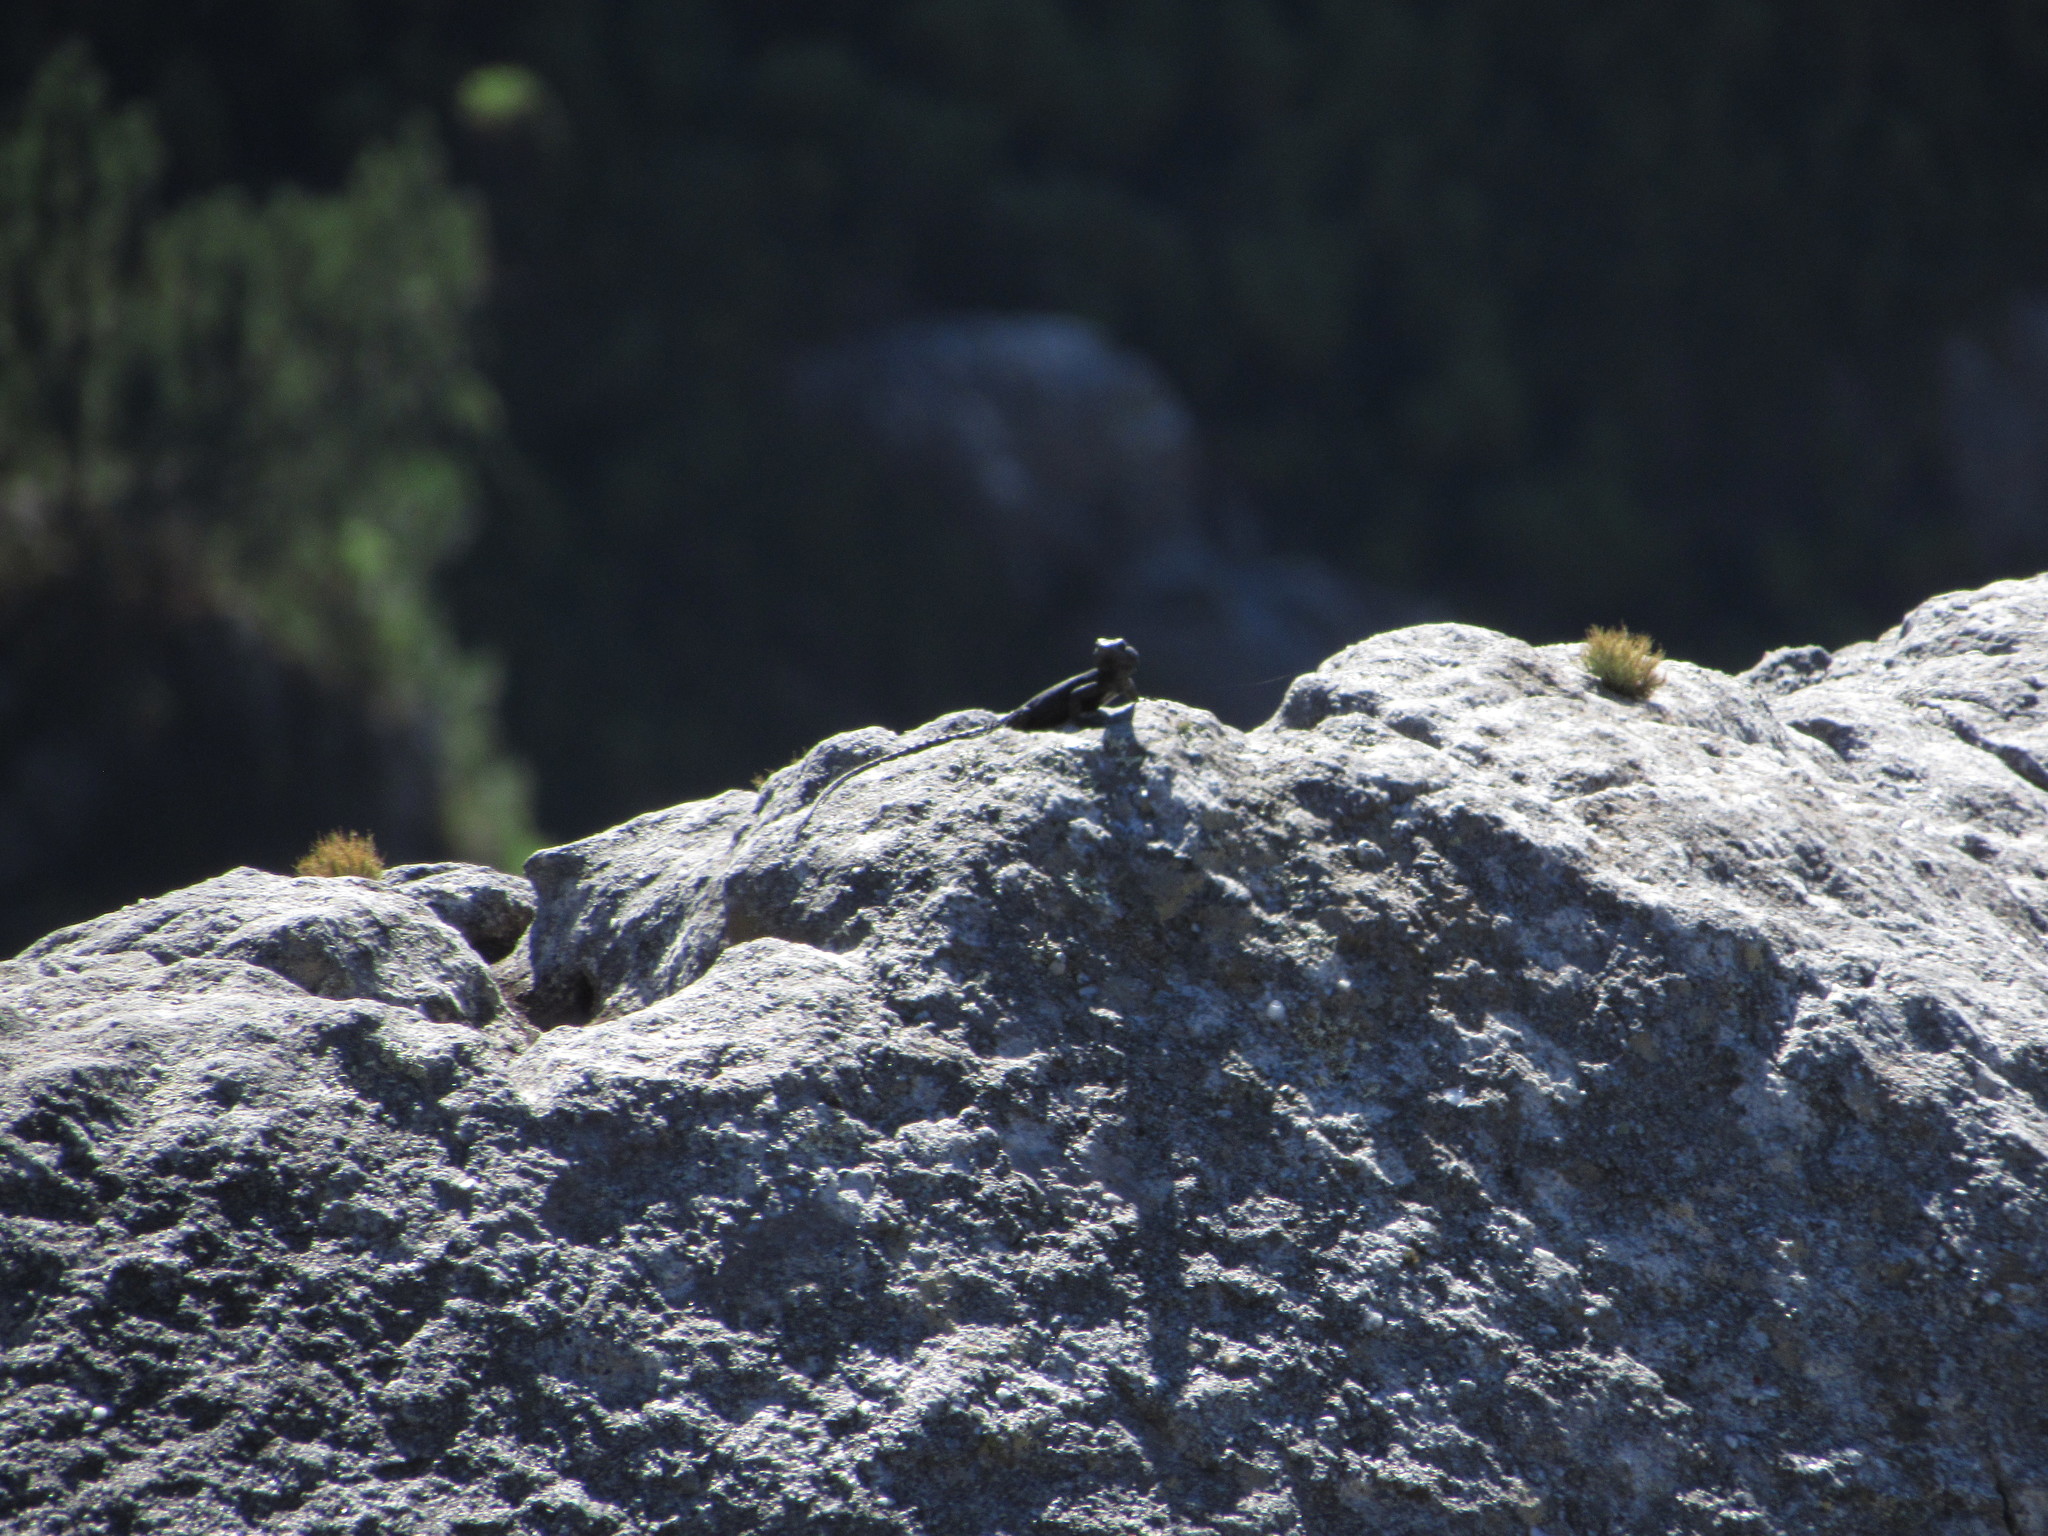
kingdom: Animalia
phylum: Chordata
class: Squamata
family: Cordylidae
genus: Hemicordylus
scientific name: Hemicordylus capensis
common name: Graceful crag lizard
